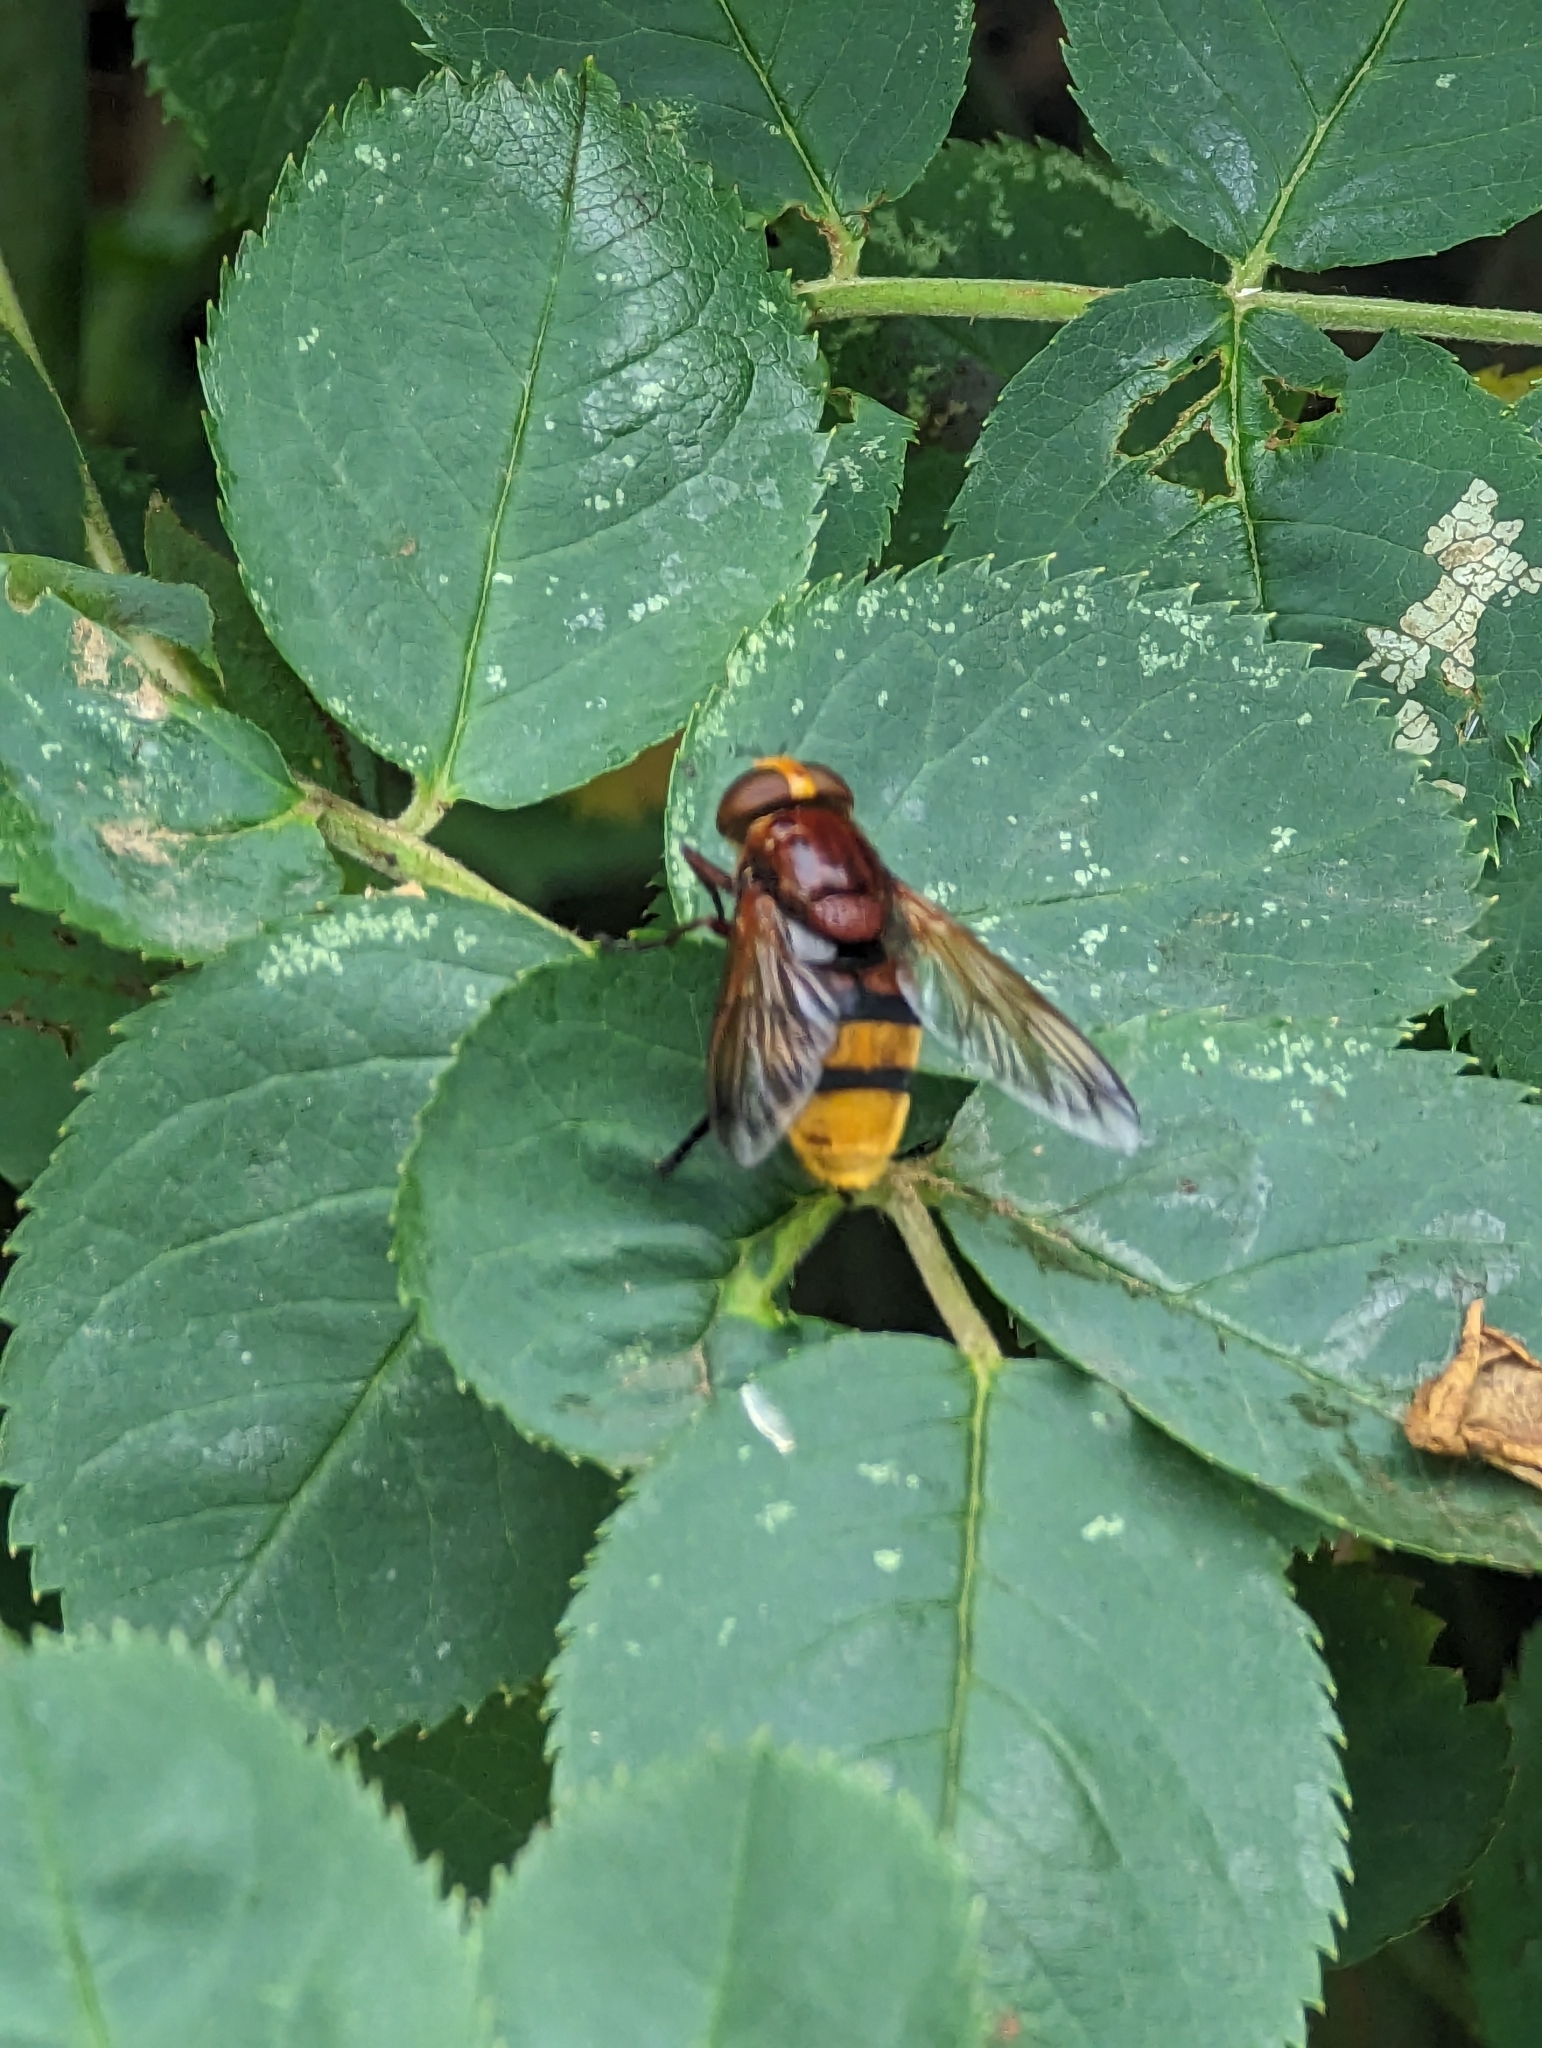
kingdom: Animalia
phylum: Arthropoda
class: Insecta
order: Diptera
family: Syrphidae
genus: Volucella
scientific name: Volucella zonaria
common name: Hornet hoverfly
